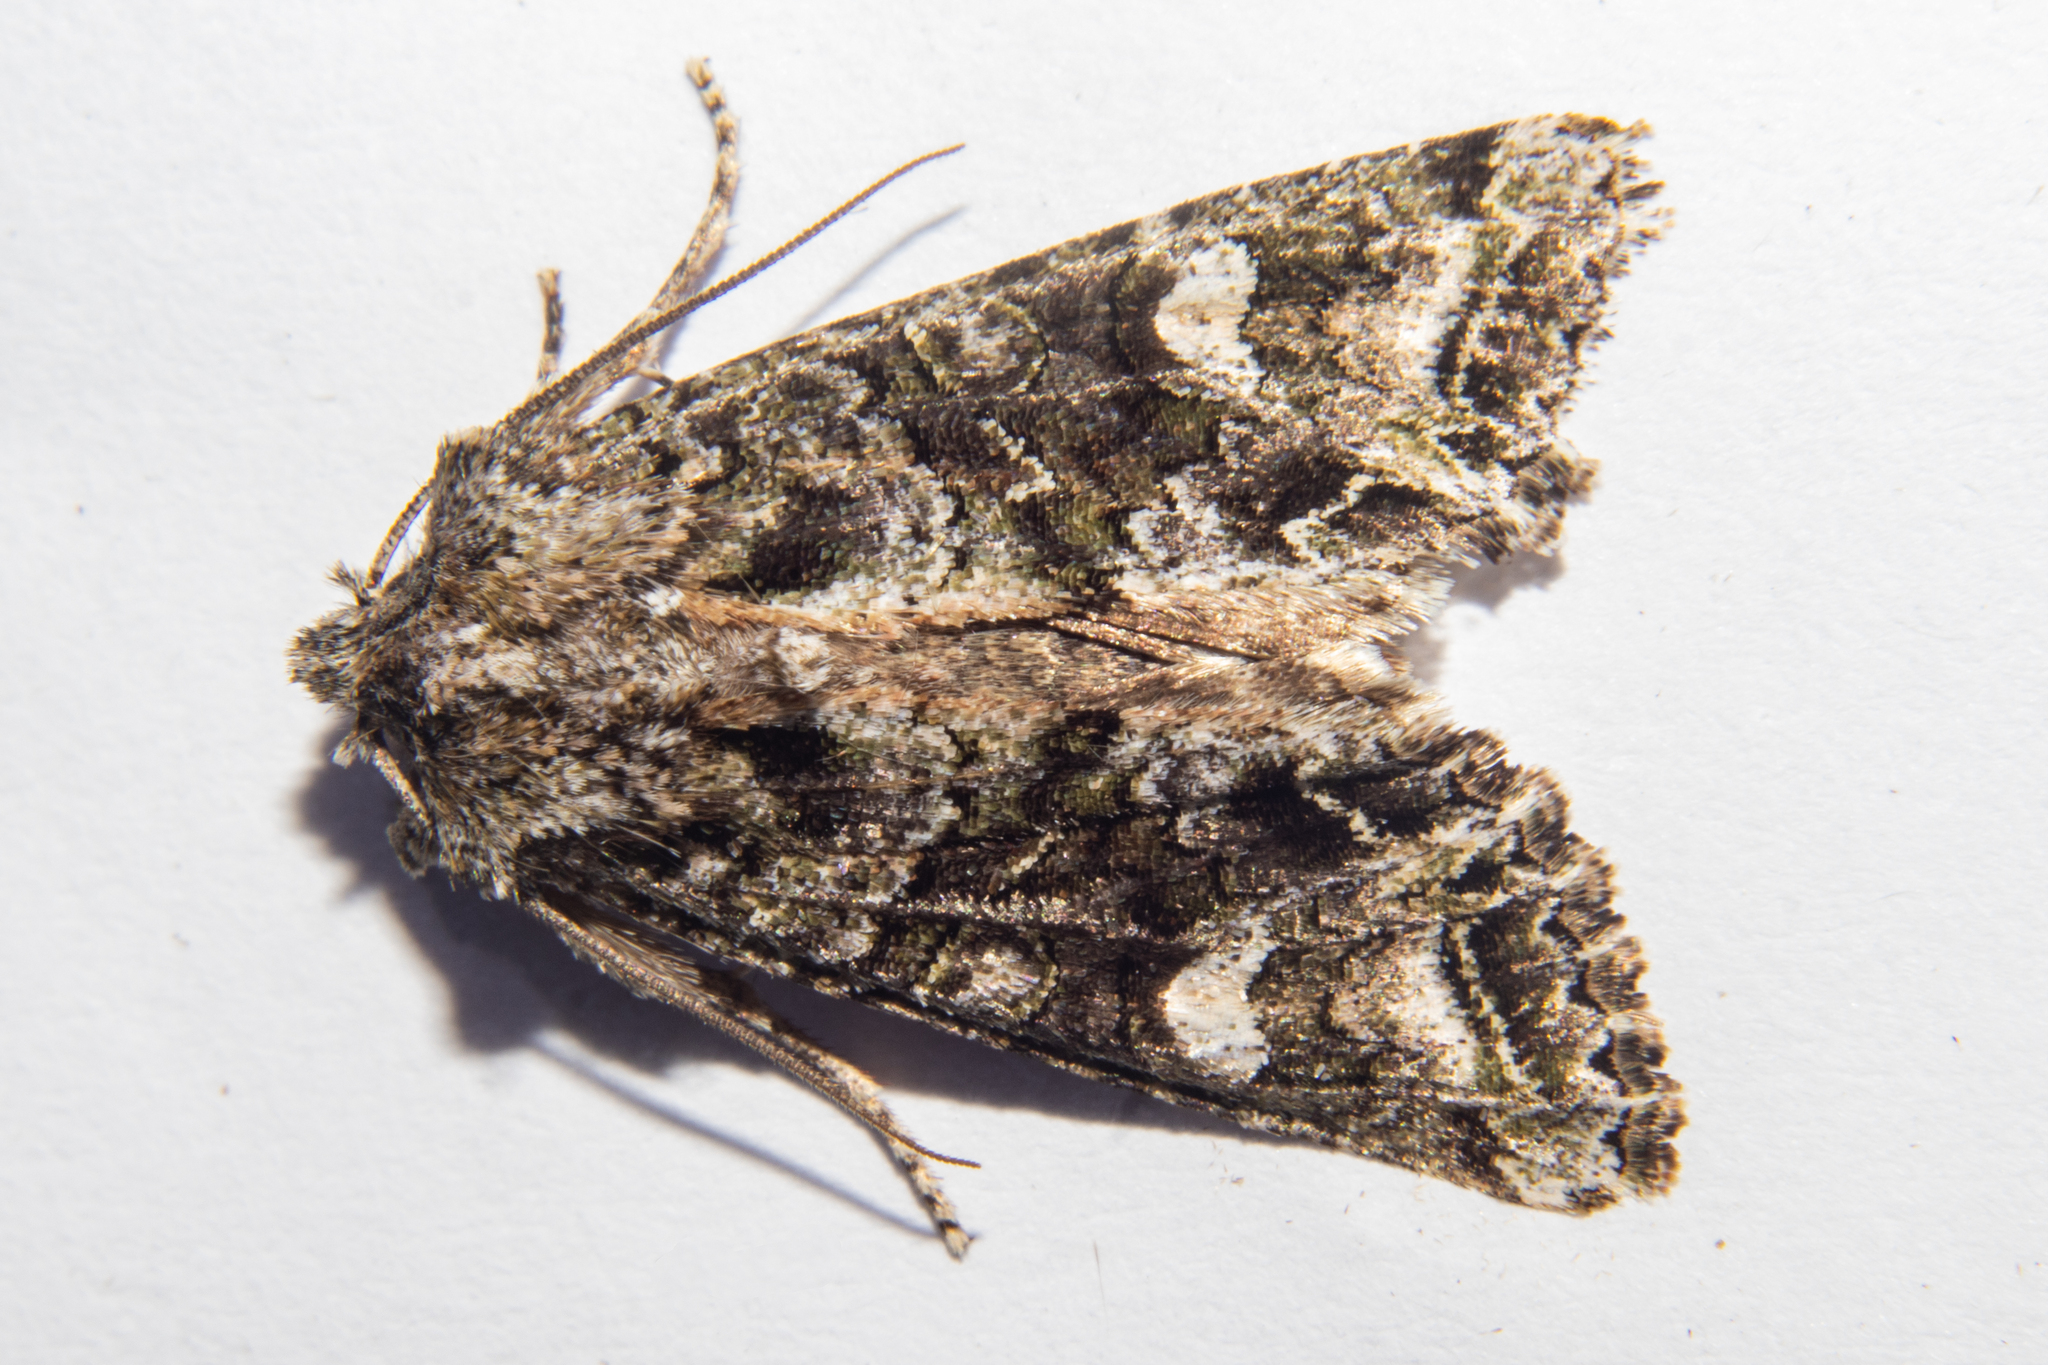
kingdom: Animalia
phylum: Arthropoda
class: Insecta
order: Lepidoptera
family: Noctuidae
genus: Ichneutica
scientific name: Ichneutica insignis
